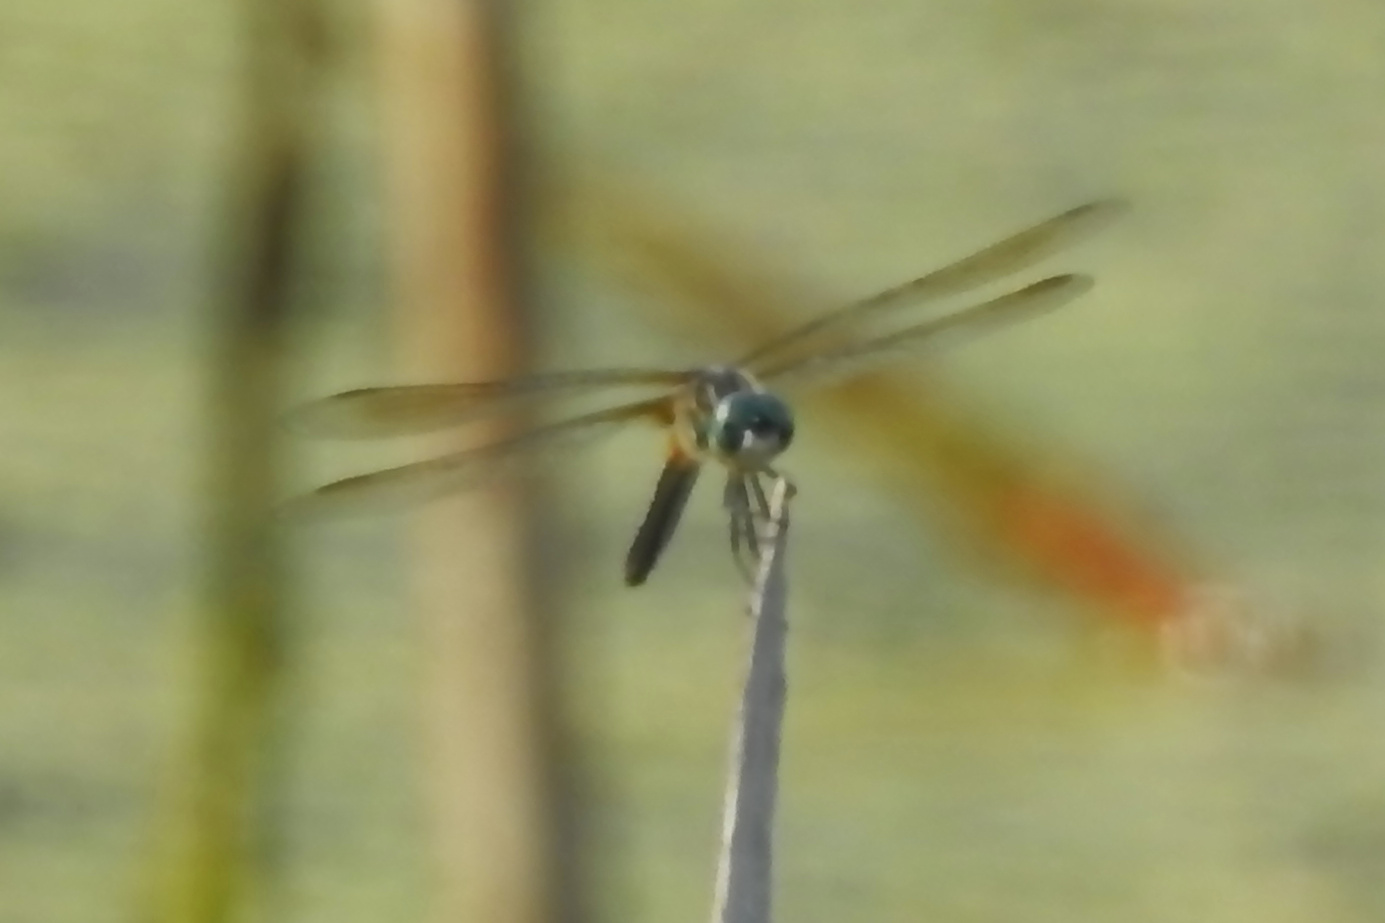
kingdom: Animalia
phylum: Arthropoda
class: Insecta
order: Odonata
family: Libellulidae
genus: Pachydiplax
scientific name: Pachydiplax longipennis
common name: Blue dasher
